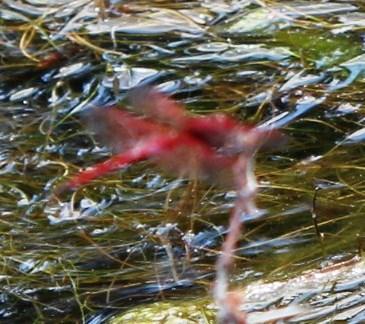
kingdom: Animalia
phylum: Arthropoda
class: Insecta
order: Odonata
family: Libellulidae
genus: Trithemis
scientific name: Trithemis arteriosa
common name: Red-veined dropwing
